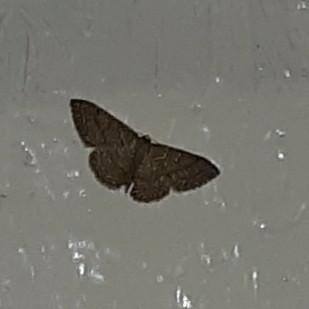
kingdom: Animalia
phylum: Arthropoda
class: Insecta
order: Lepidoptera
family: Geometridae
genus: Pleuroprucha
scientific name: Pleuroprucha insulsaria
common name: Common tan wave
